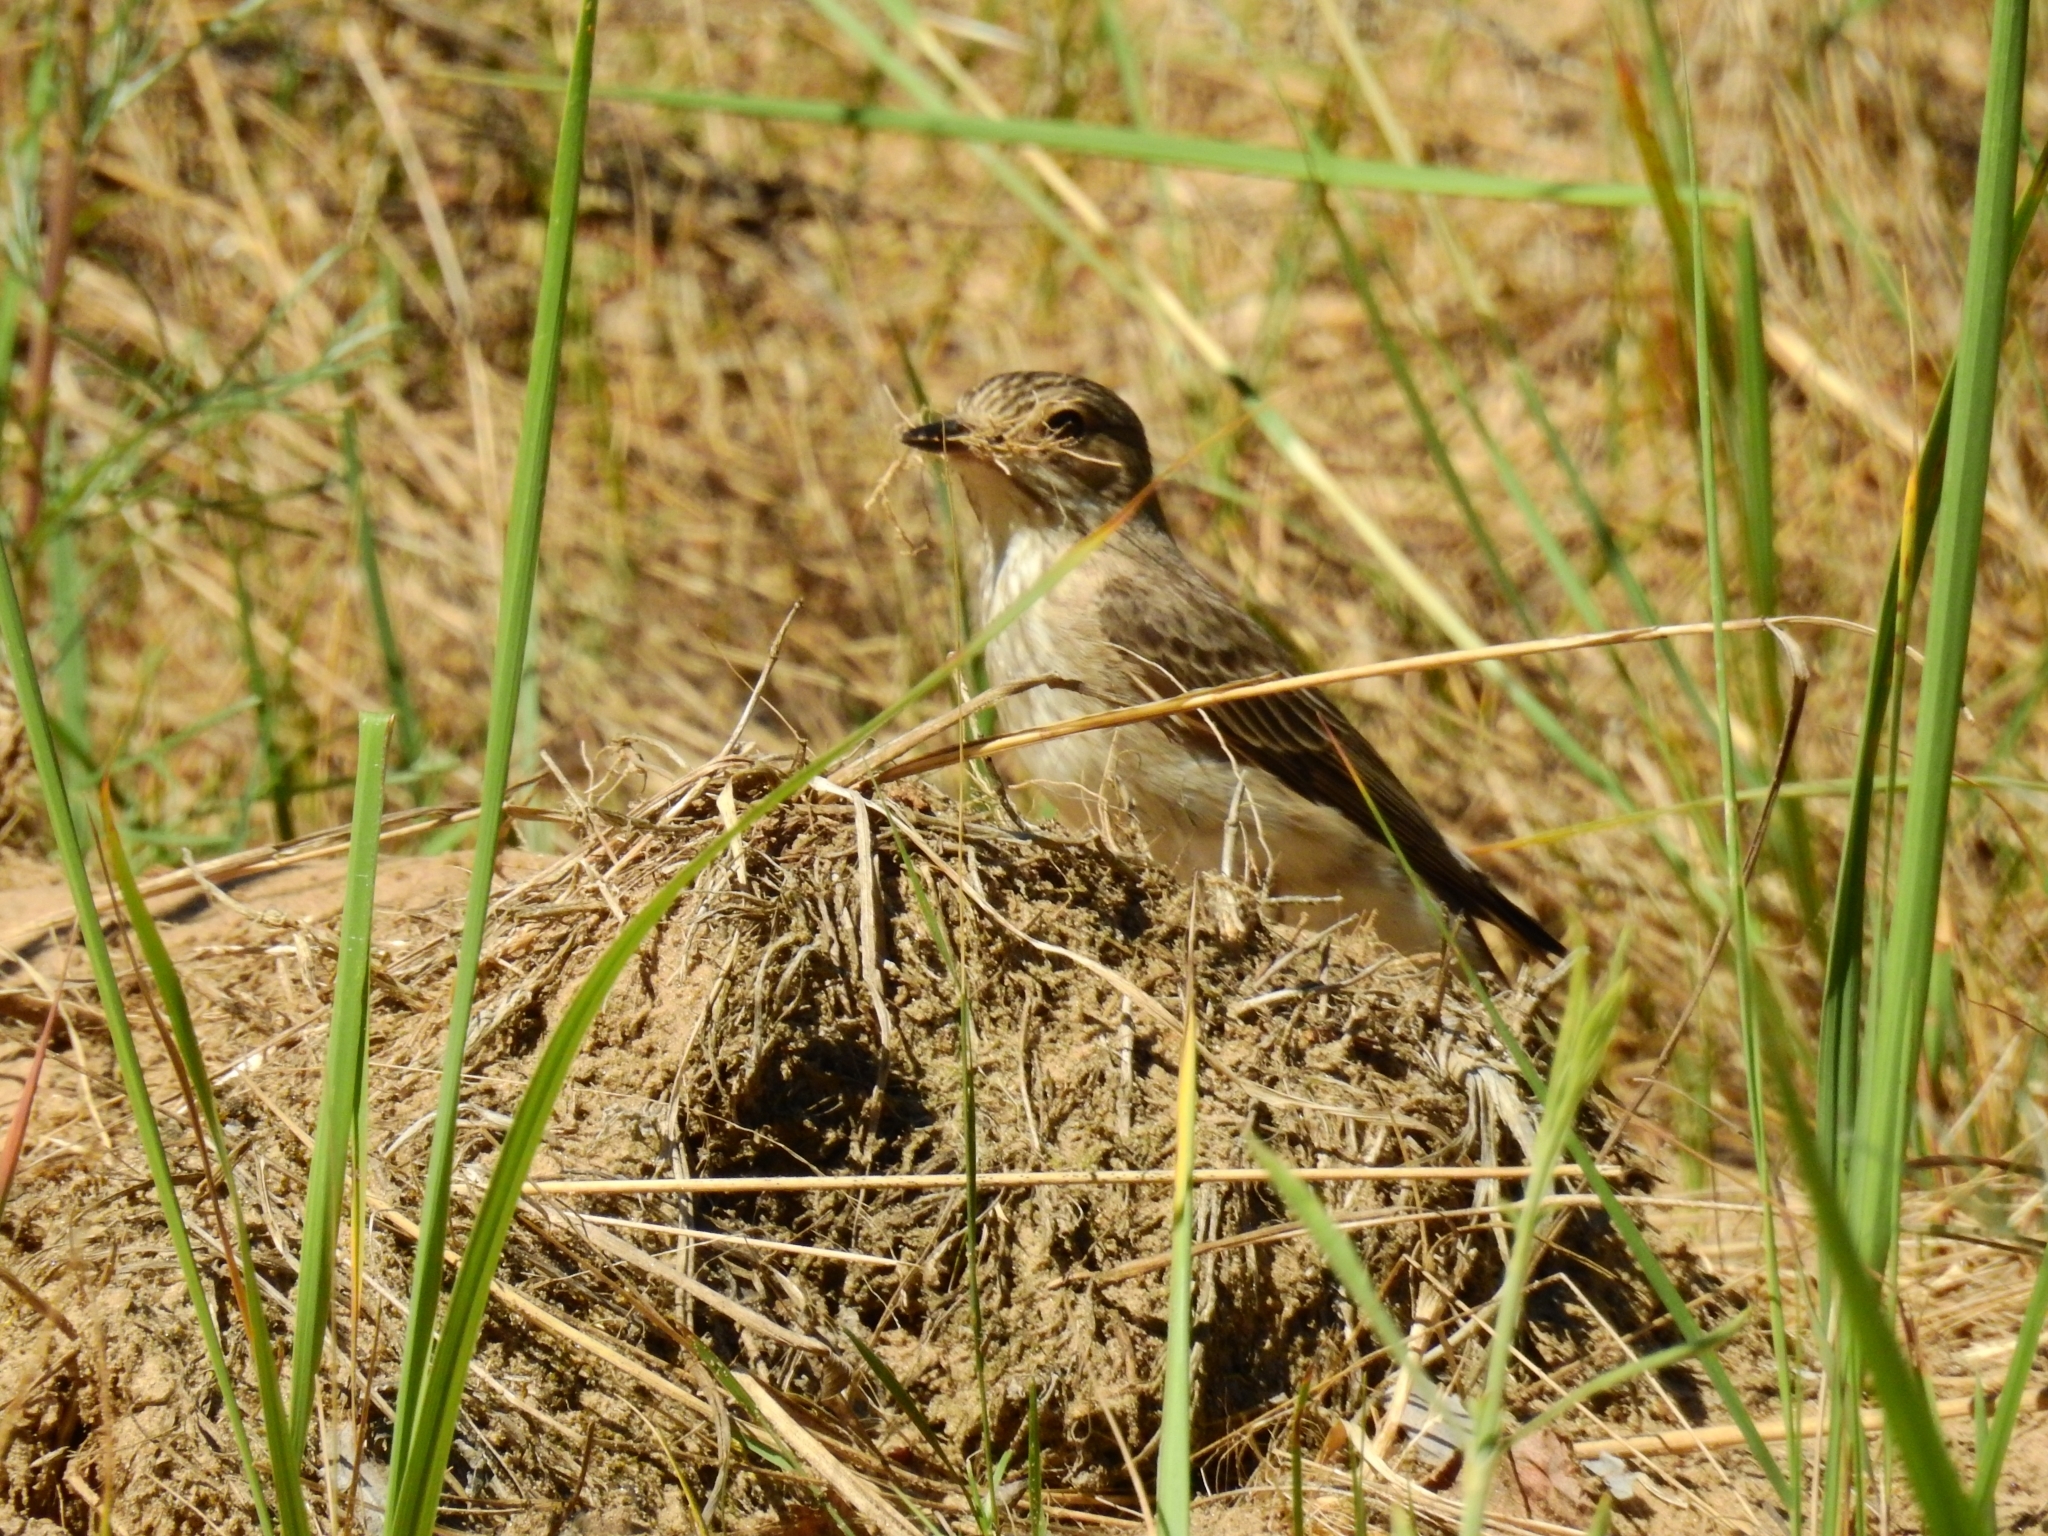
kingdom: Animalia
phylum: Chordata
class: Aves
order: Passeriformes
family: Muscicapidae
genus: Muscicapa
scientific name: Muscicapa striata
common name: Spotted flycatcher
